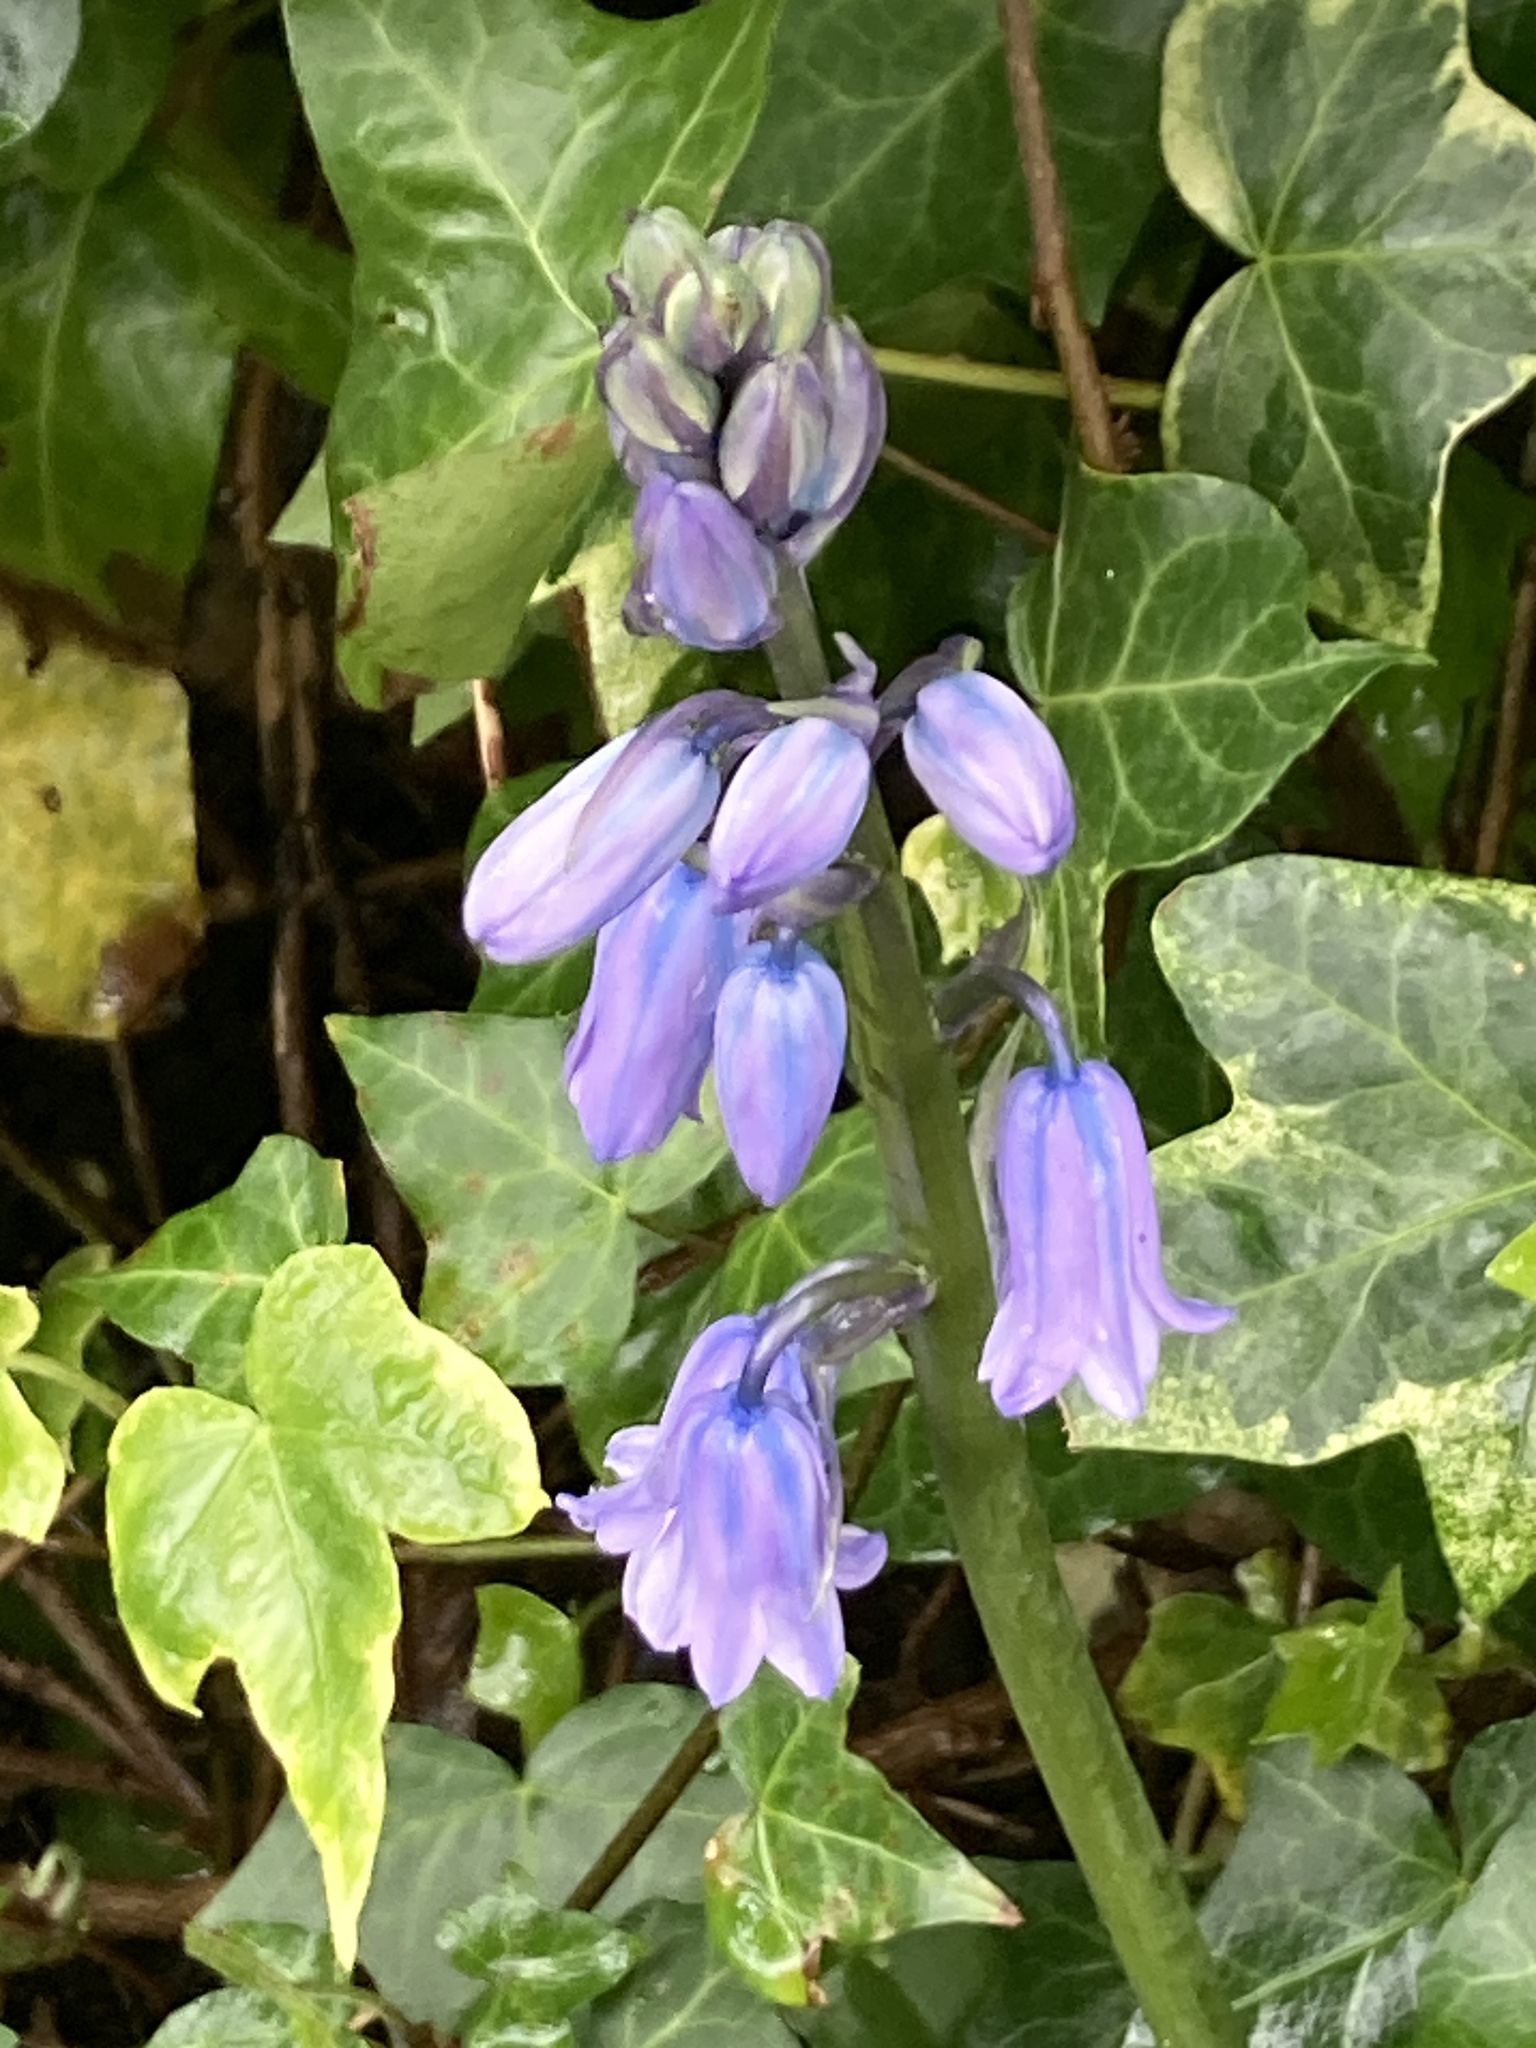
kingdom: Plantae
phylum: Tracheophyta
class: Liliopsida
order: Asparagales
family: Asparagaceae
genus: Hyacinthoides
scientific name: Hyacinthoides massartiana
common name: Hyacinthoides
